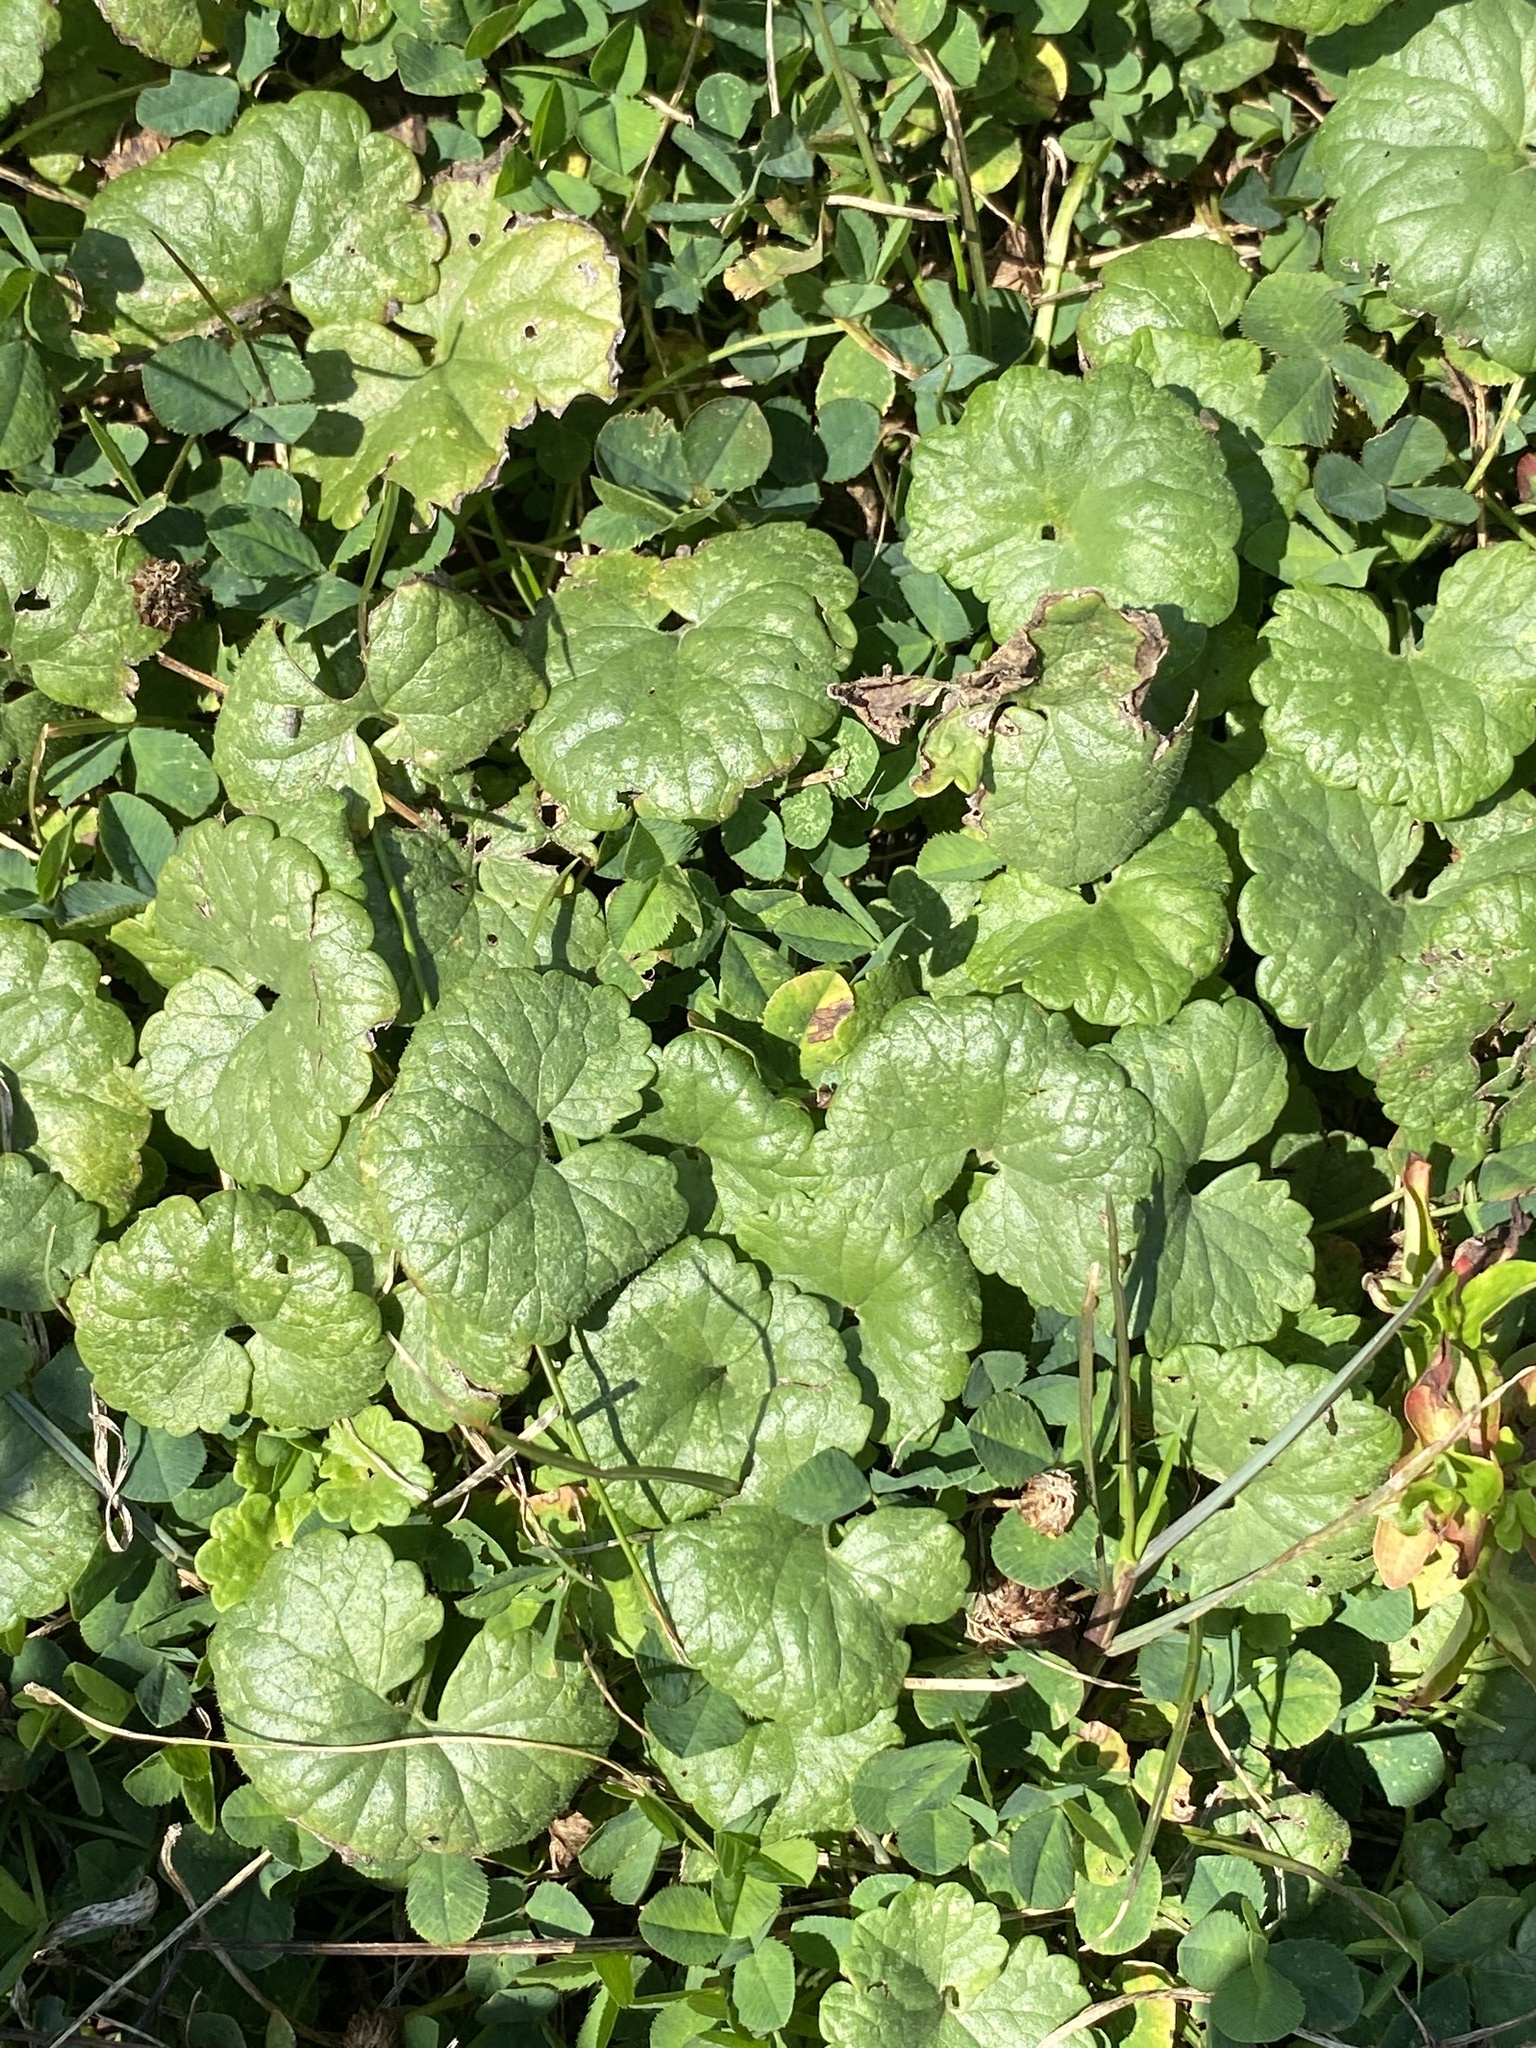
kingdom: Plantae
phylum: Tracheophyta
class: Magnoliopsida
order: Lamiales
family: Lamiaceae
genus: Glechoma
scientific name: Glechoma hederacea
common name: Ground ivy
